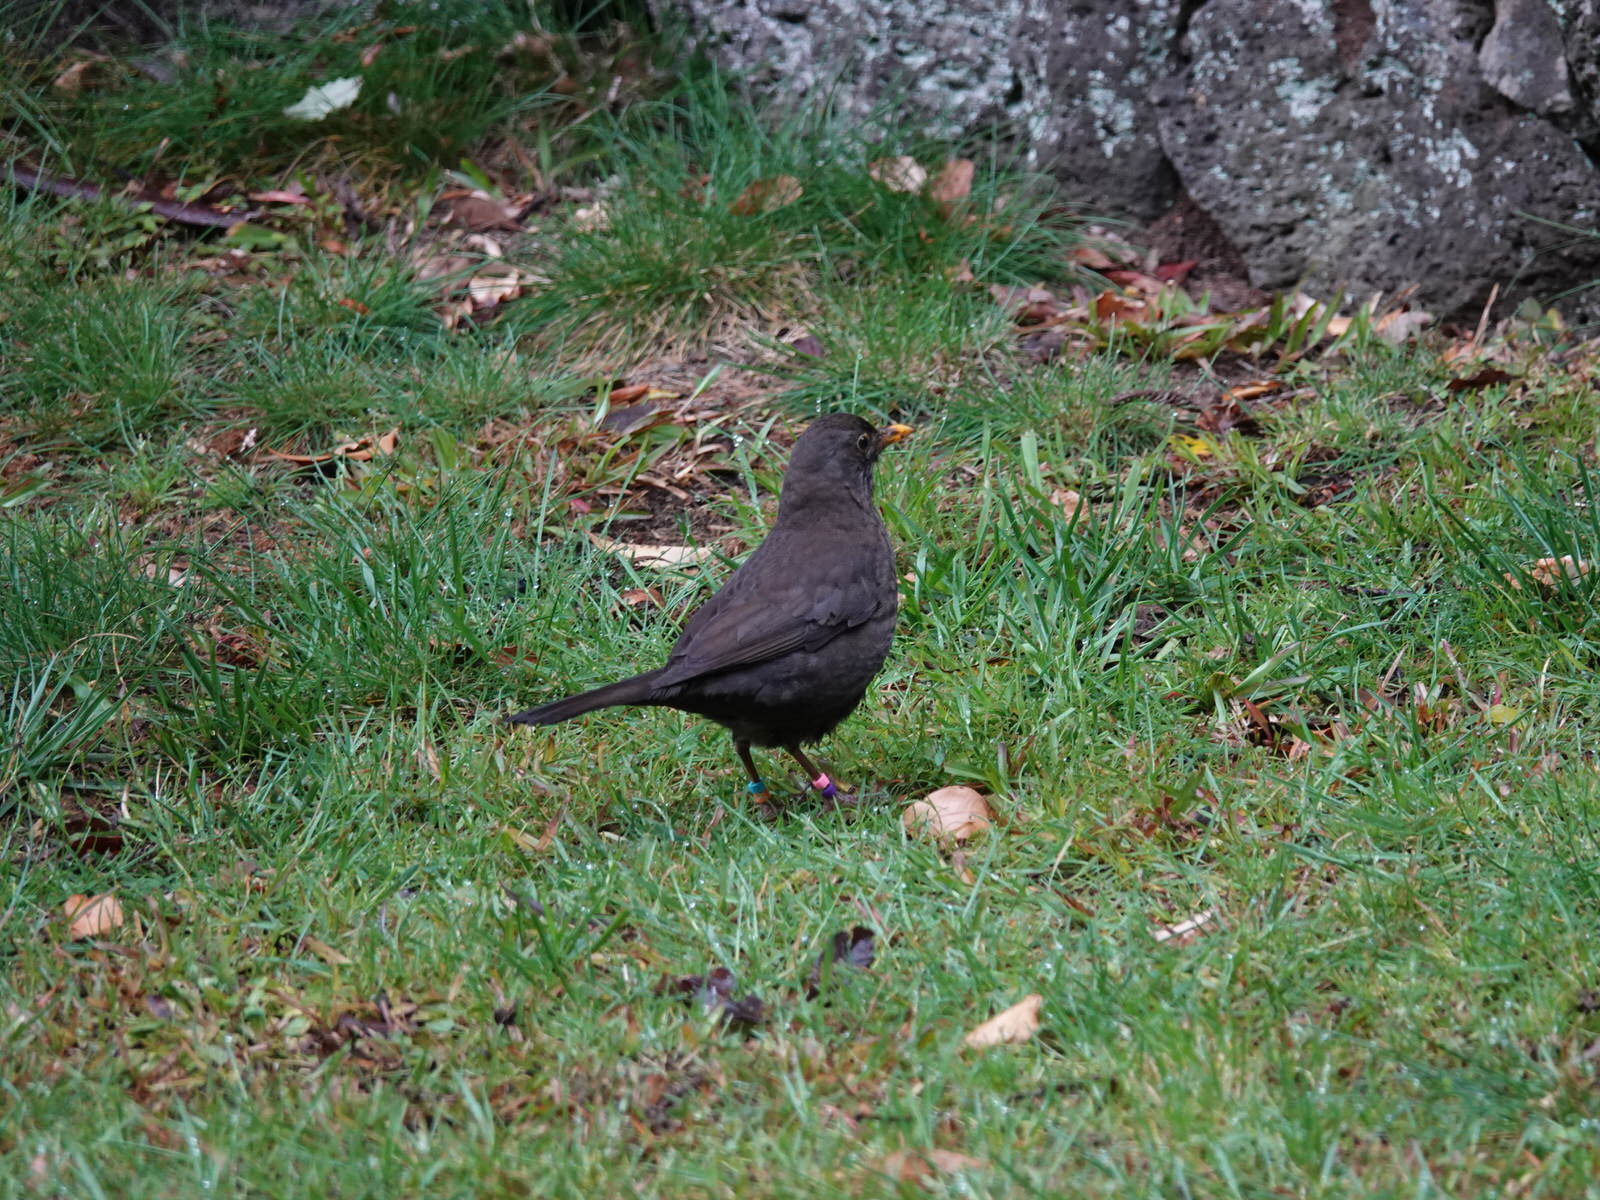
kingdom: Animalia
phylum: Chordata
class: Aves
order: Passeriformes
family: Turdidae
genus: Turdus
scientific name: Turdus merula
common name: Common blackbird
